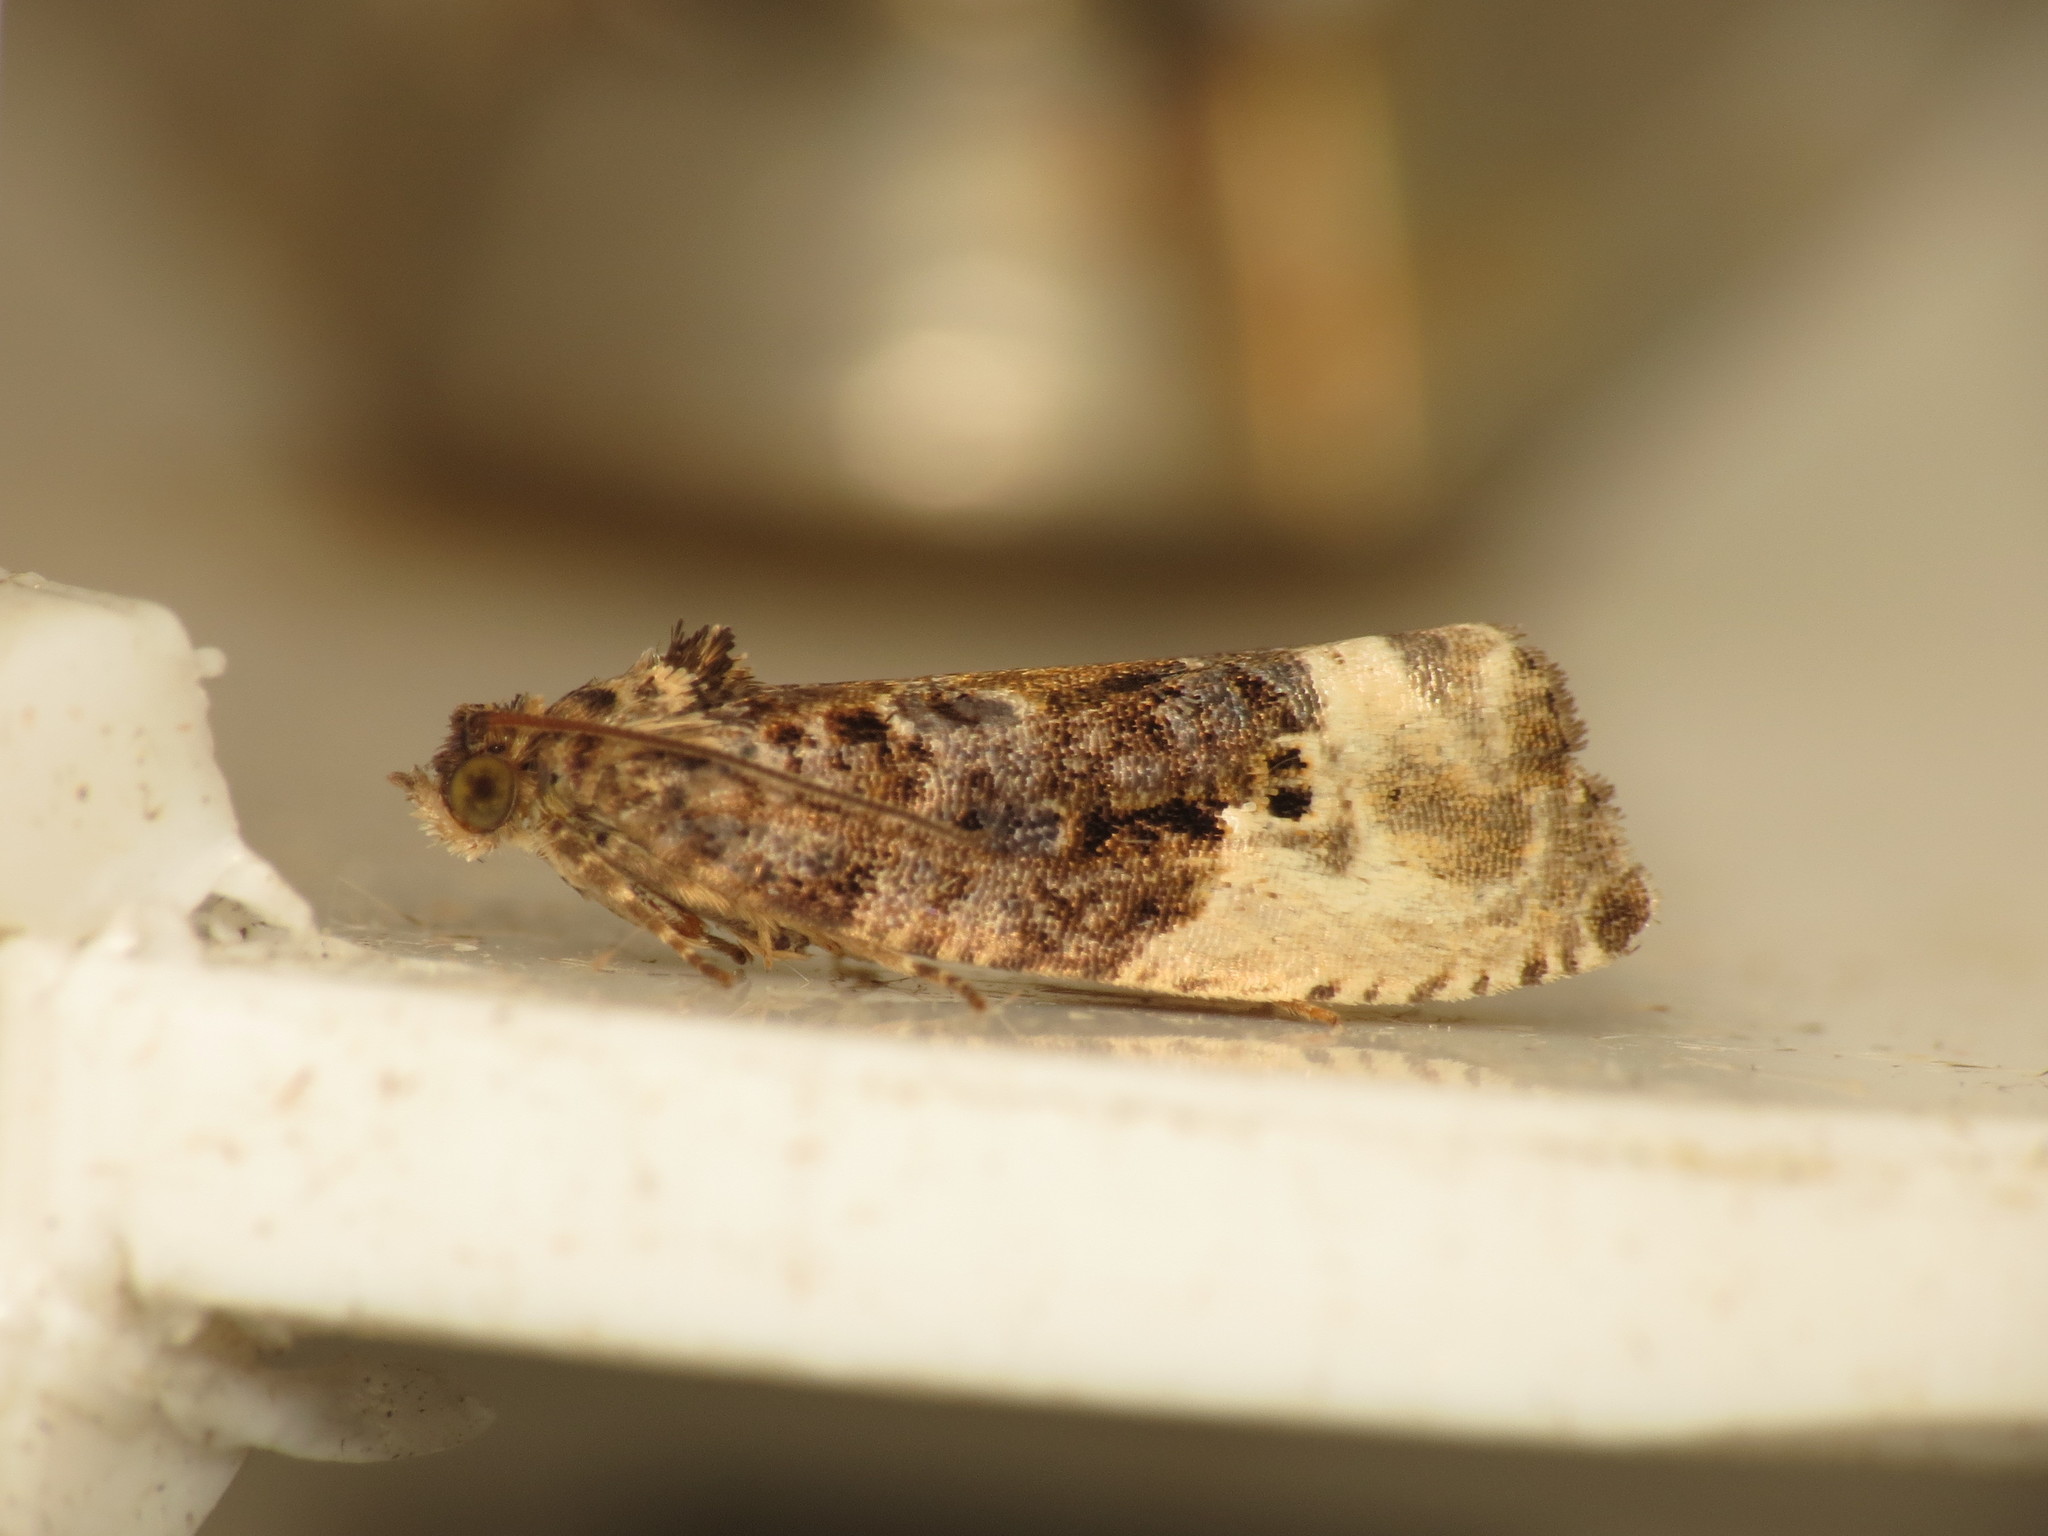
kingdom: Animalia
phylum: Arthropoda
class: Insecta
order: Lepidoptera
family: Tortricidae
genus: Hedya
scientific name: Hedya nubiferana
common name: Marbled orchard tortrix
